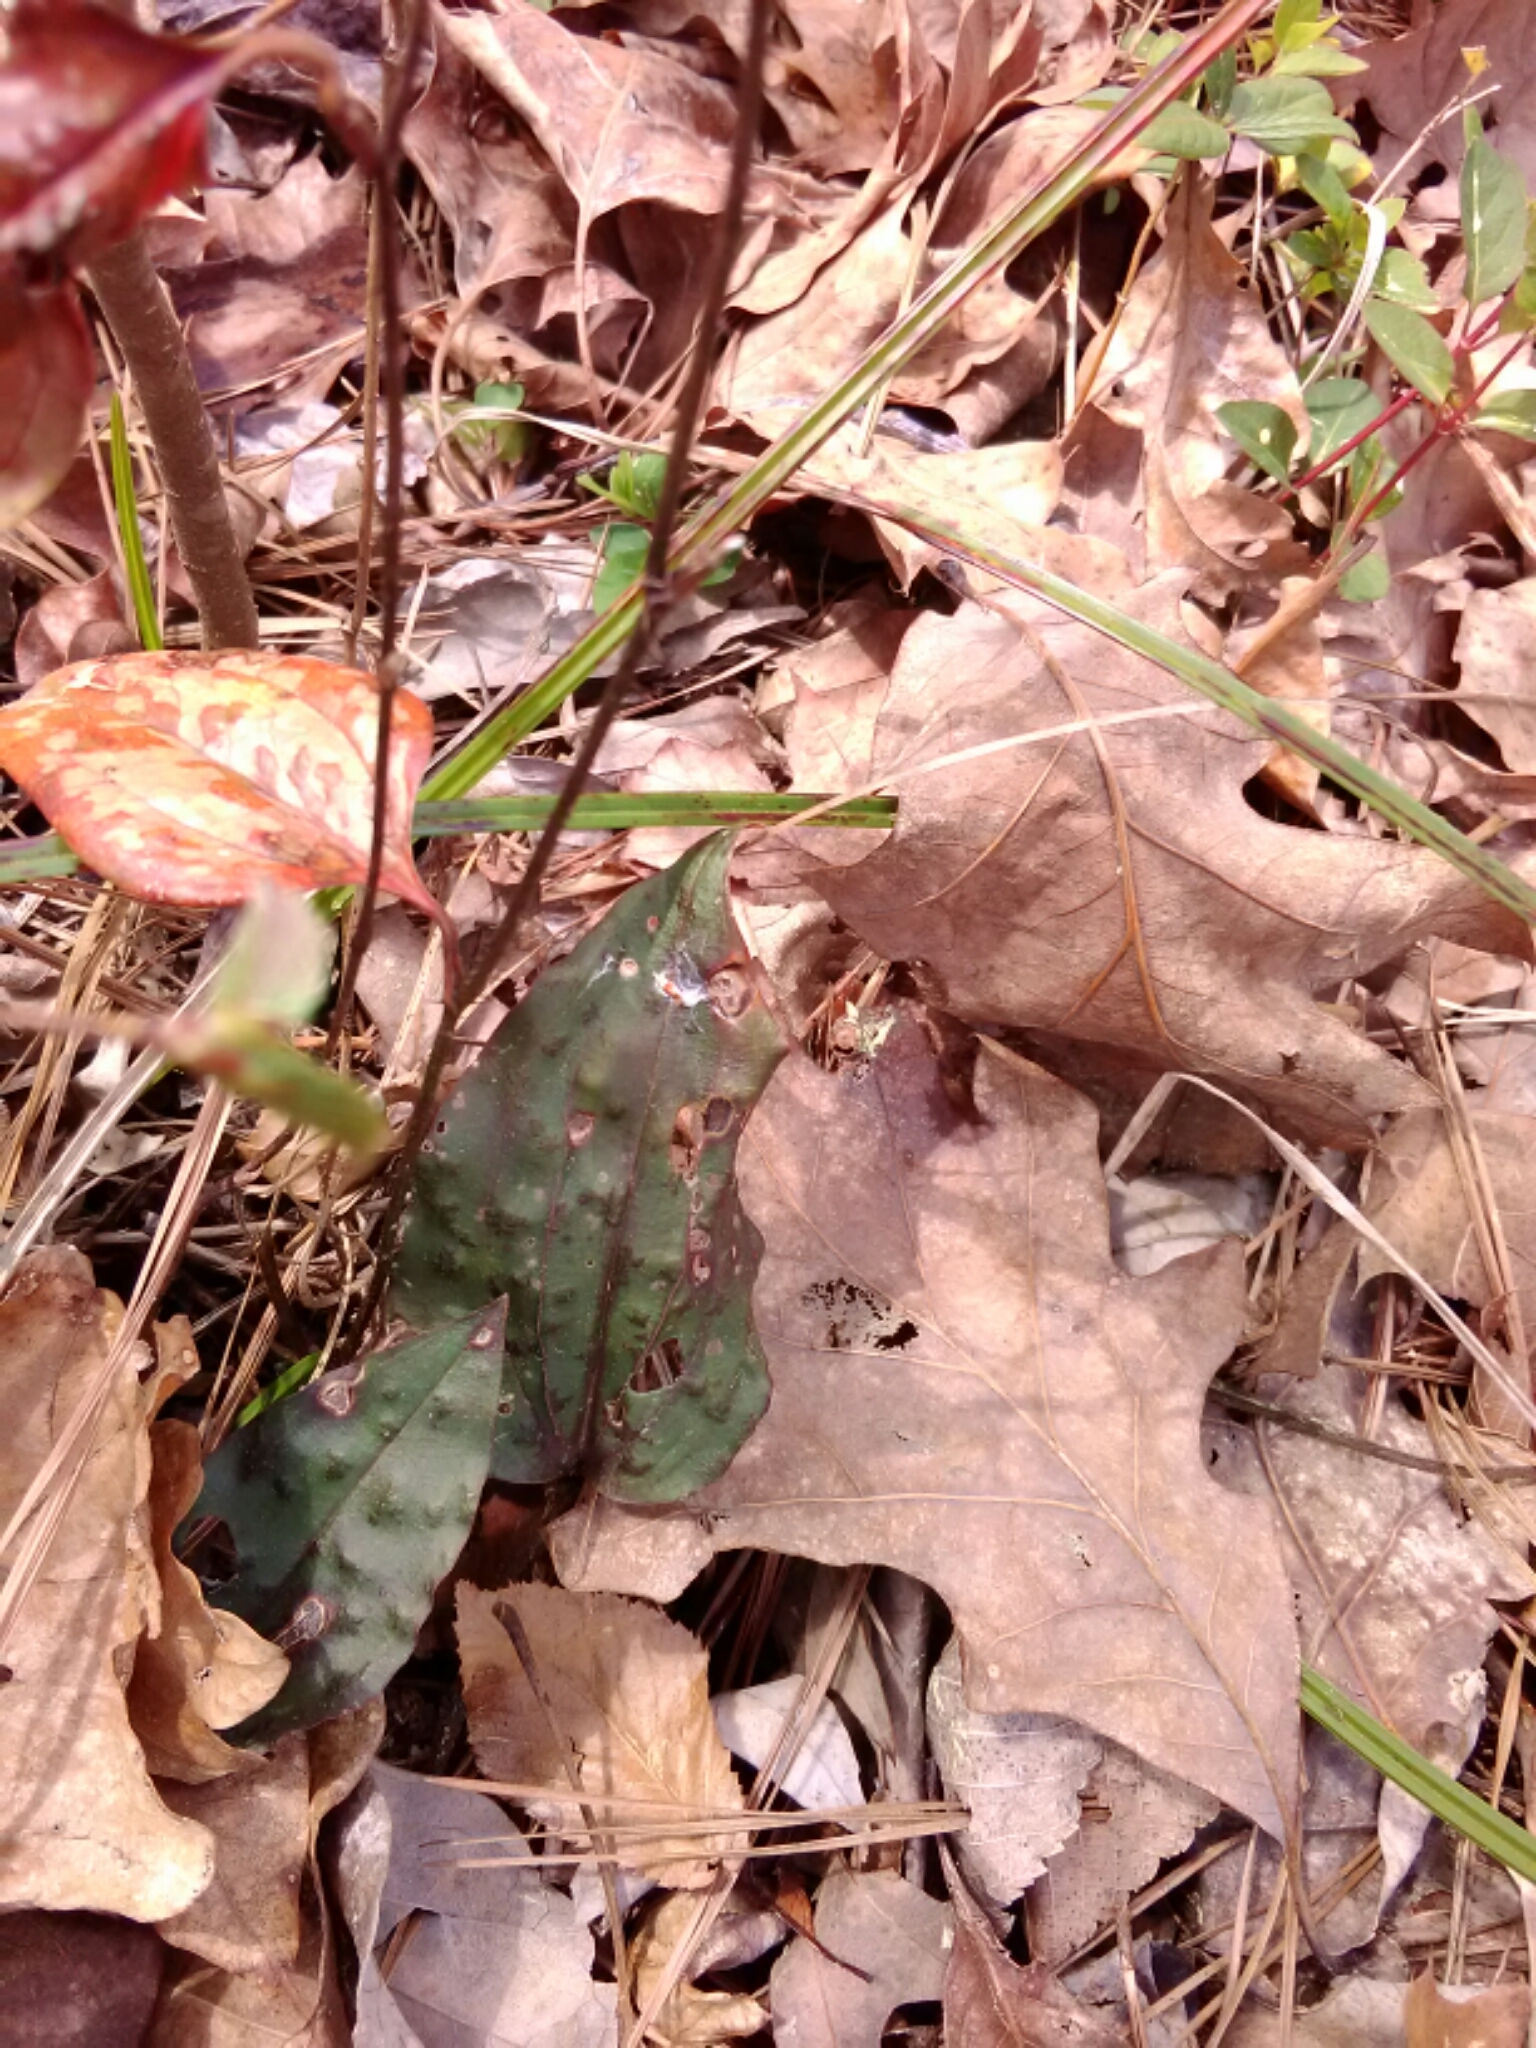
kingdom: Plantae
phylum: Tracheophyta
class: Liliopsida
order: Asparagales
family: Orchidaceae
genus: Tipularia
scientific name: Tipularia discolor
